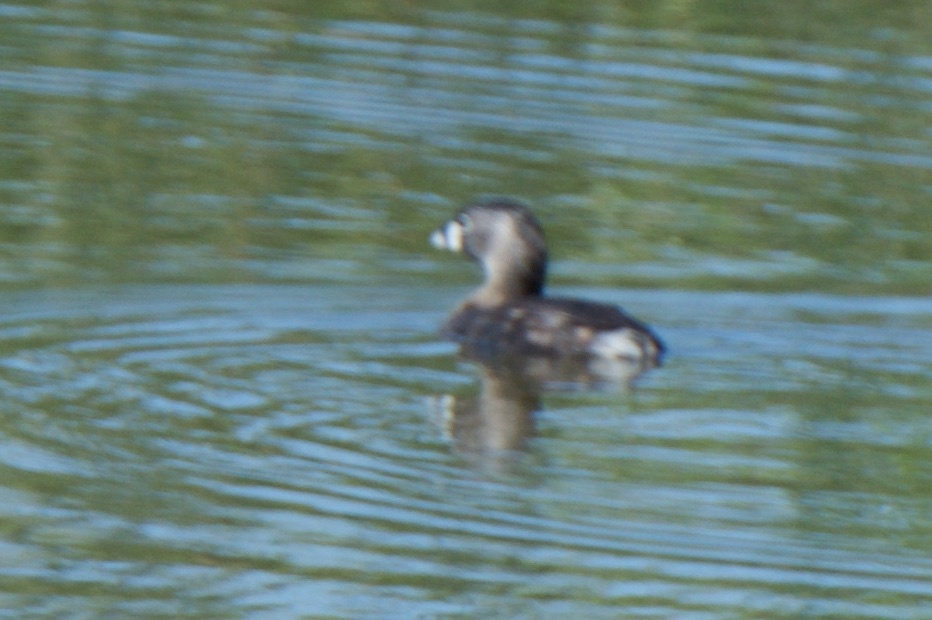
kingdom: Animalia
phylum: Chordata
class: Aves
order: Podicipediformes
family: Podicipedidae
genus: Podilymbus
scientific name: Podilymbus podiceps
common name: Pied-billed grebe
